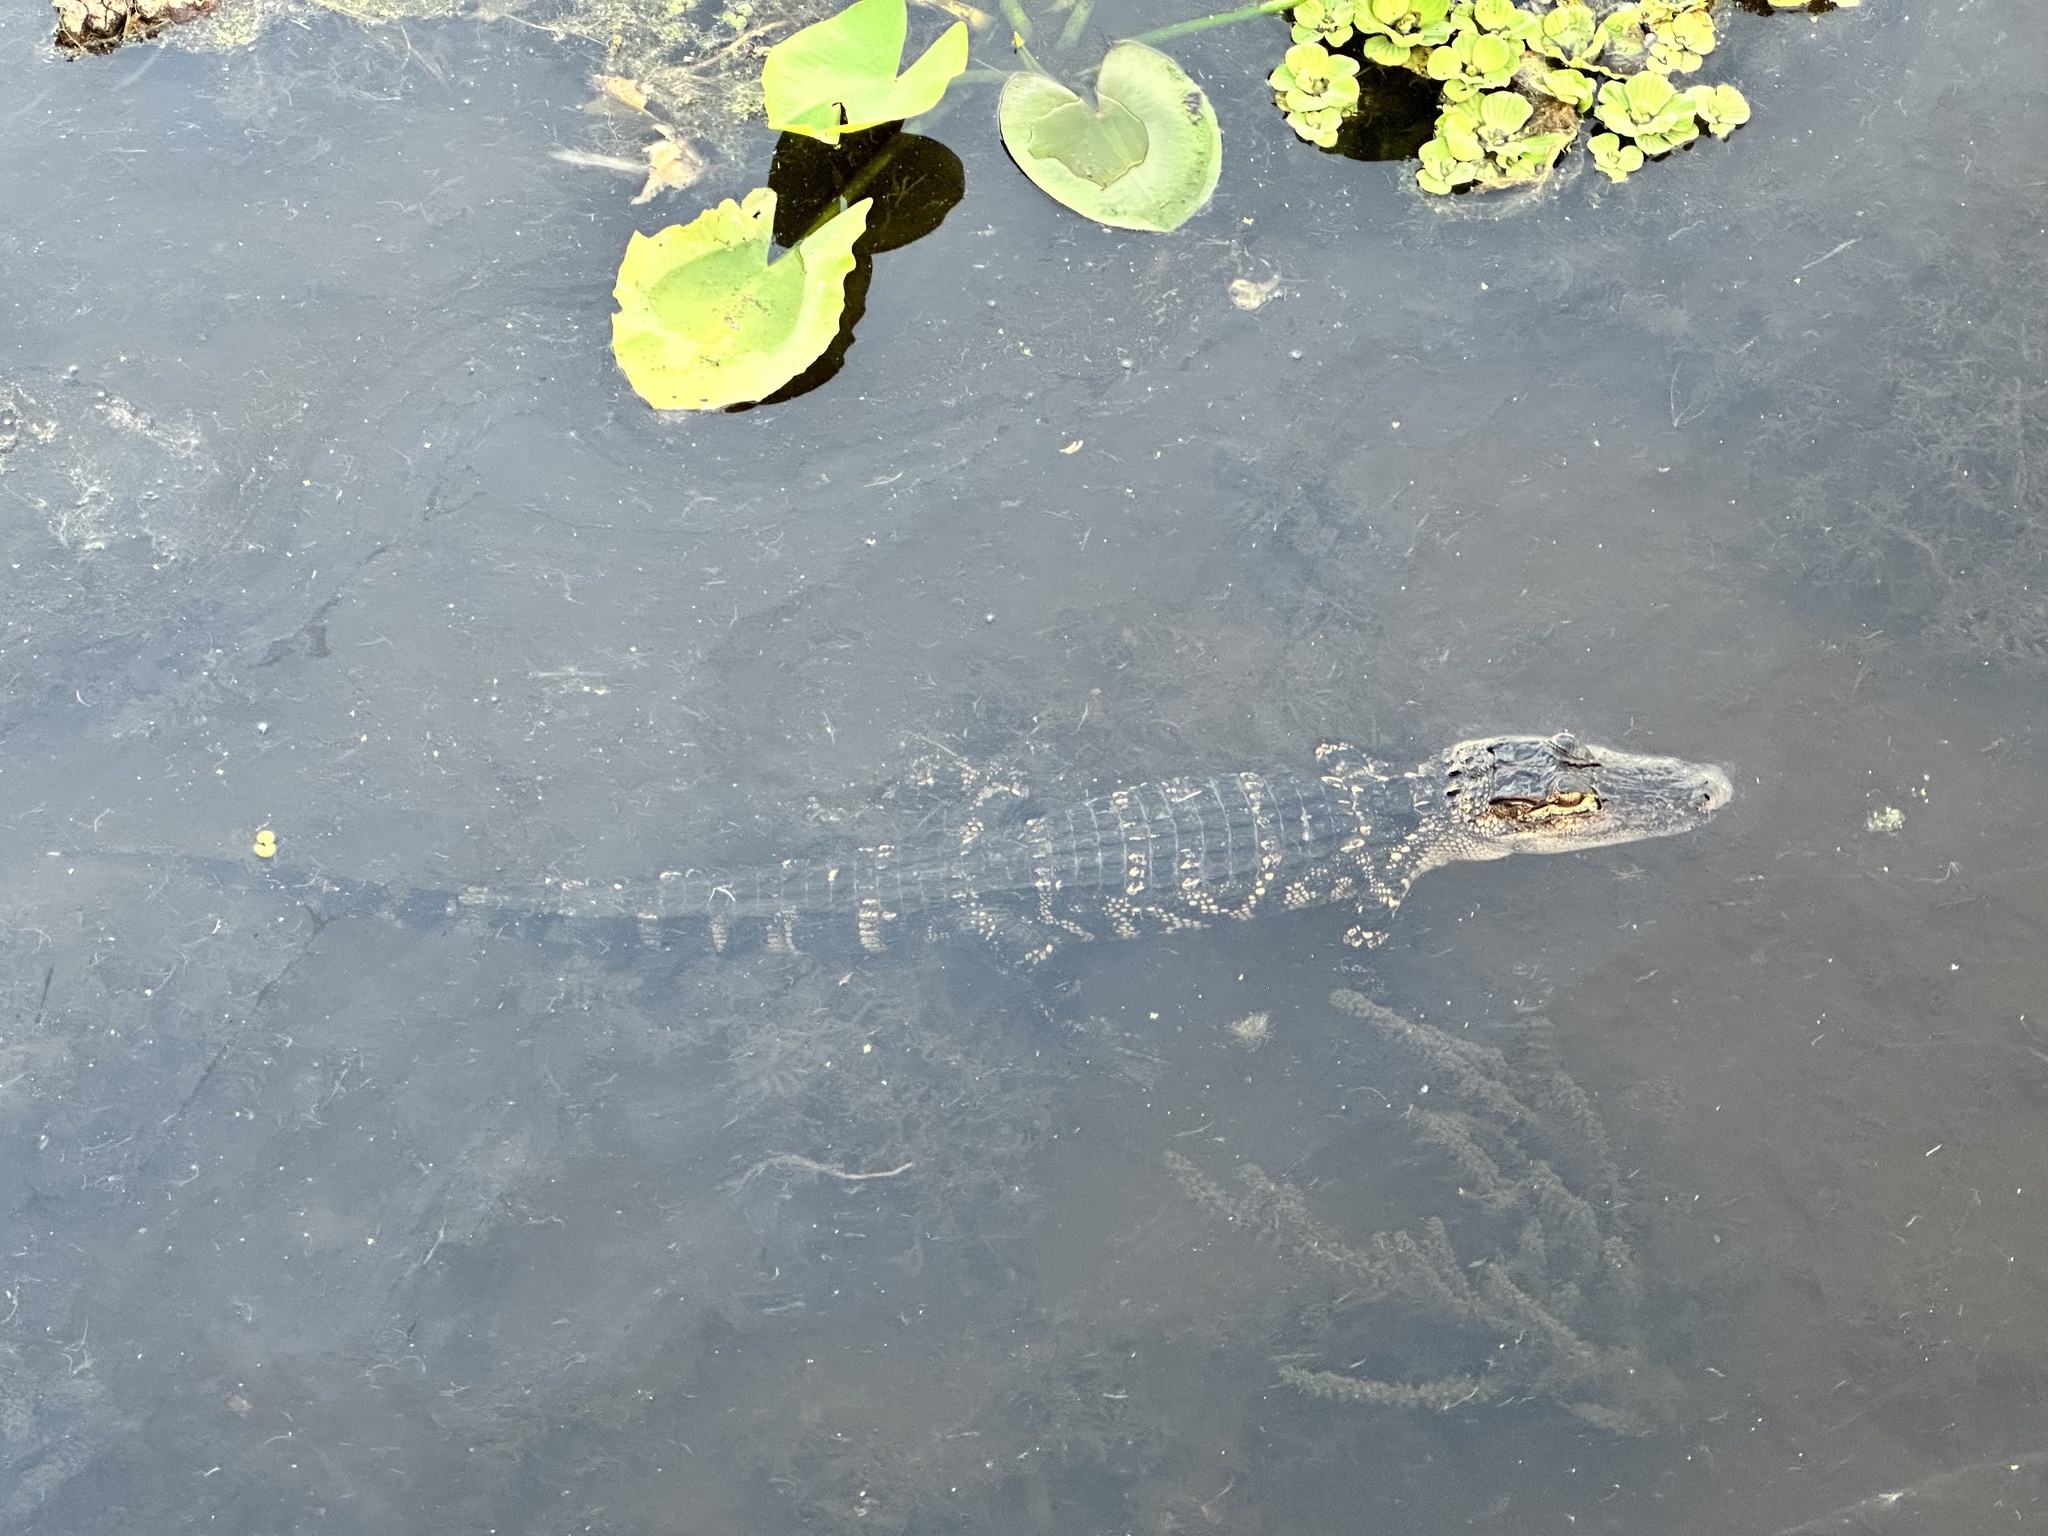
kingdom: Animalia
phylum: Chordata
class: Crocodylia
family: Alligatoridae
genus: Alligator
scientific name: Alligator mississippiensis
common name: American alligator
